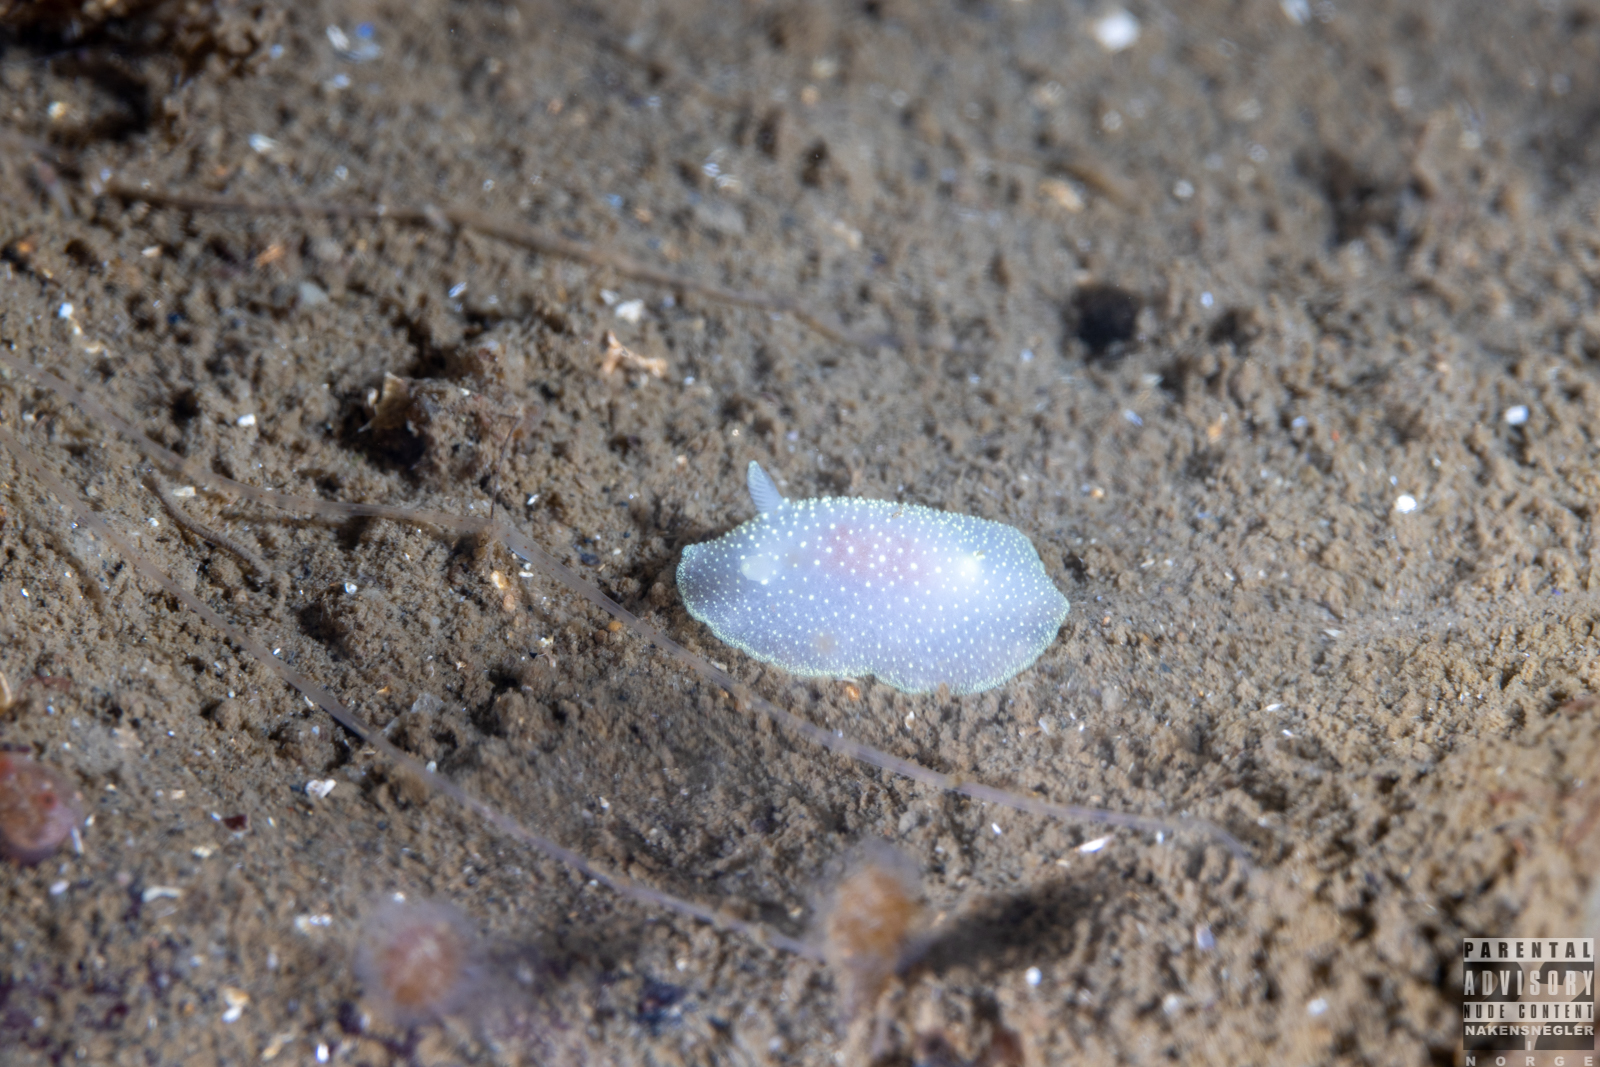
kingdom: Animalia
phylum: Mollusca
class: Gastropoda
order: Nudibranchia
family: Cadlinidae
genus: Cadlina
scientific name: Cadlina laevis
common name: White atlantic cadlina
